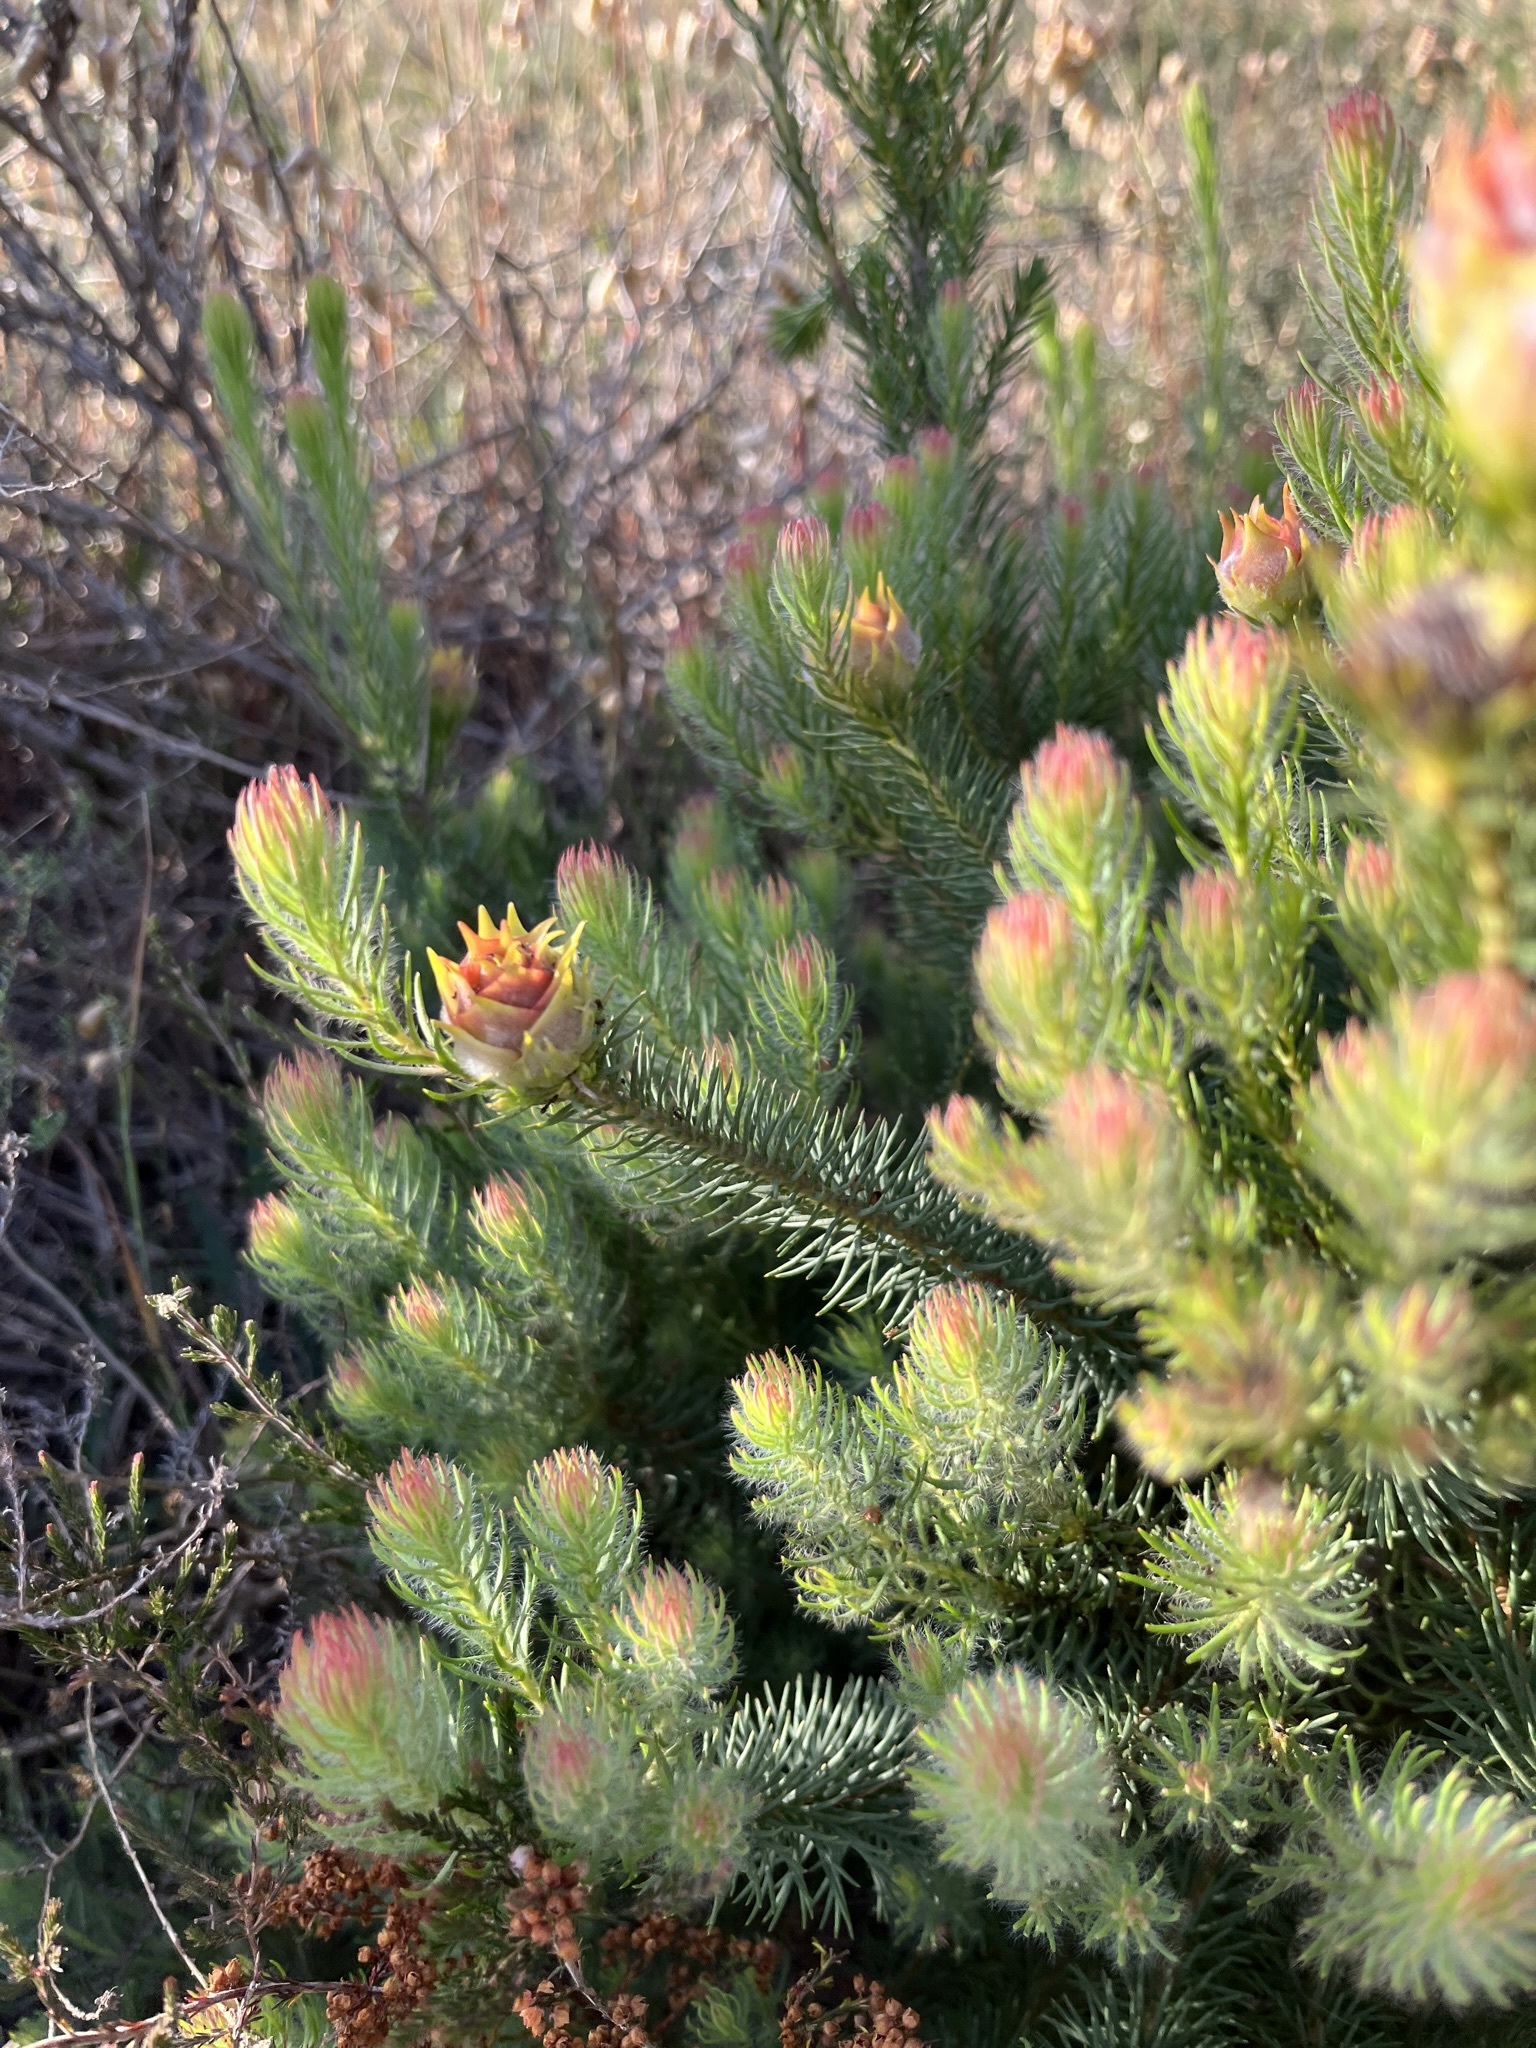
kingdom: Plantae
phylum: Tracheophyta
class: Magnoliopsida
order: Proteales
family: Proteaceae
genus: Leucadendron
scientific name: Leucadendron laxum
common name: Bredasdorp conebush
